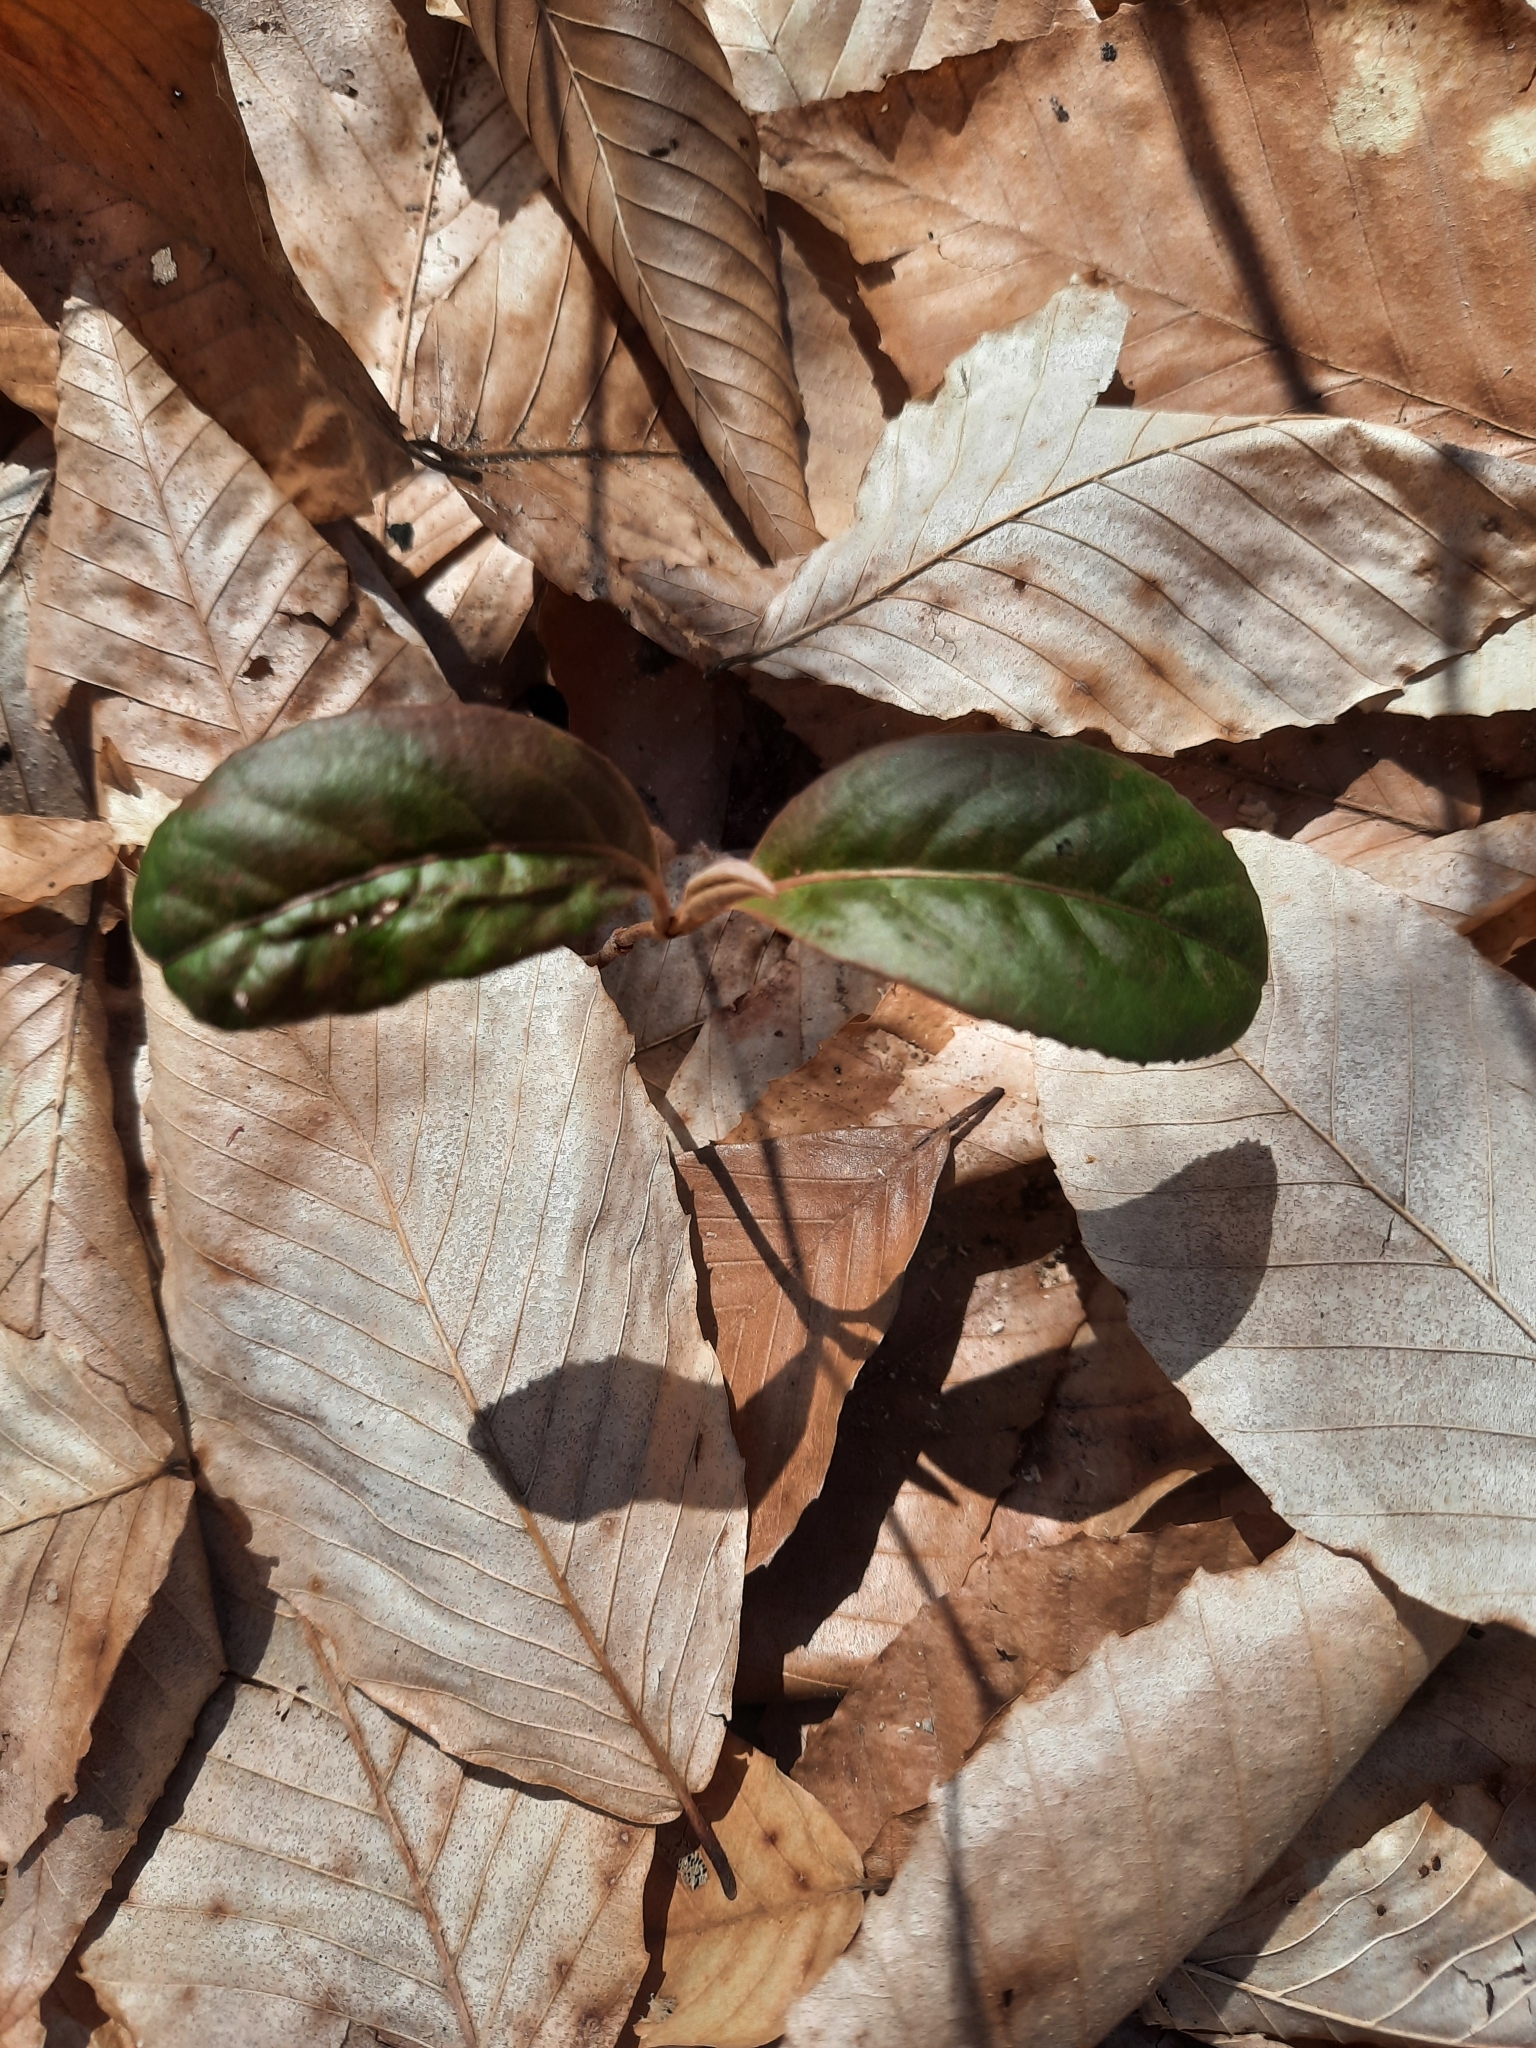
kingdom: Plantae
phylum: Tracheophyta
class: Magnoliopsida
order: Dipsacales
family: Viburnaceae
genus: Viburnum
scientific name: Viburnum cassinoides
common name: Swamp haw
